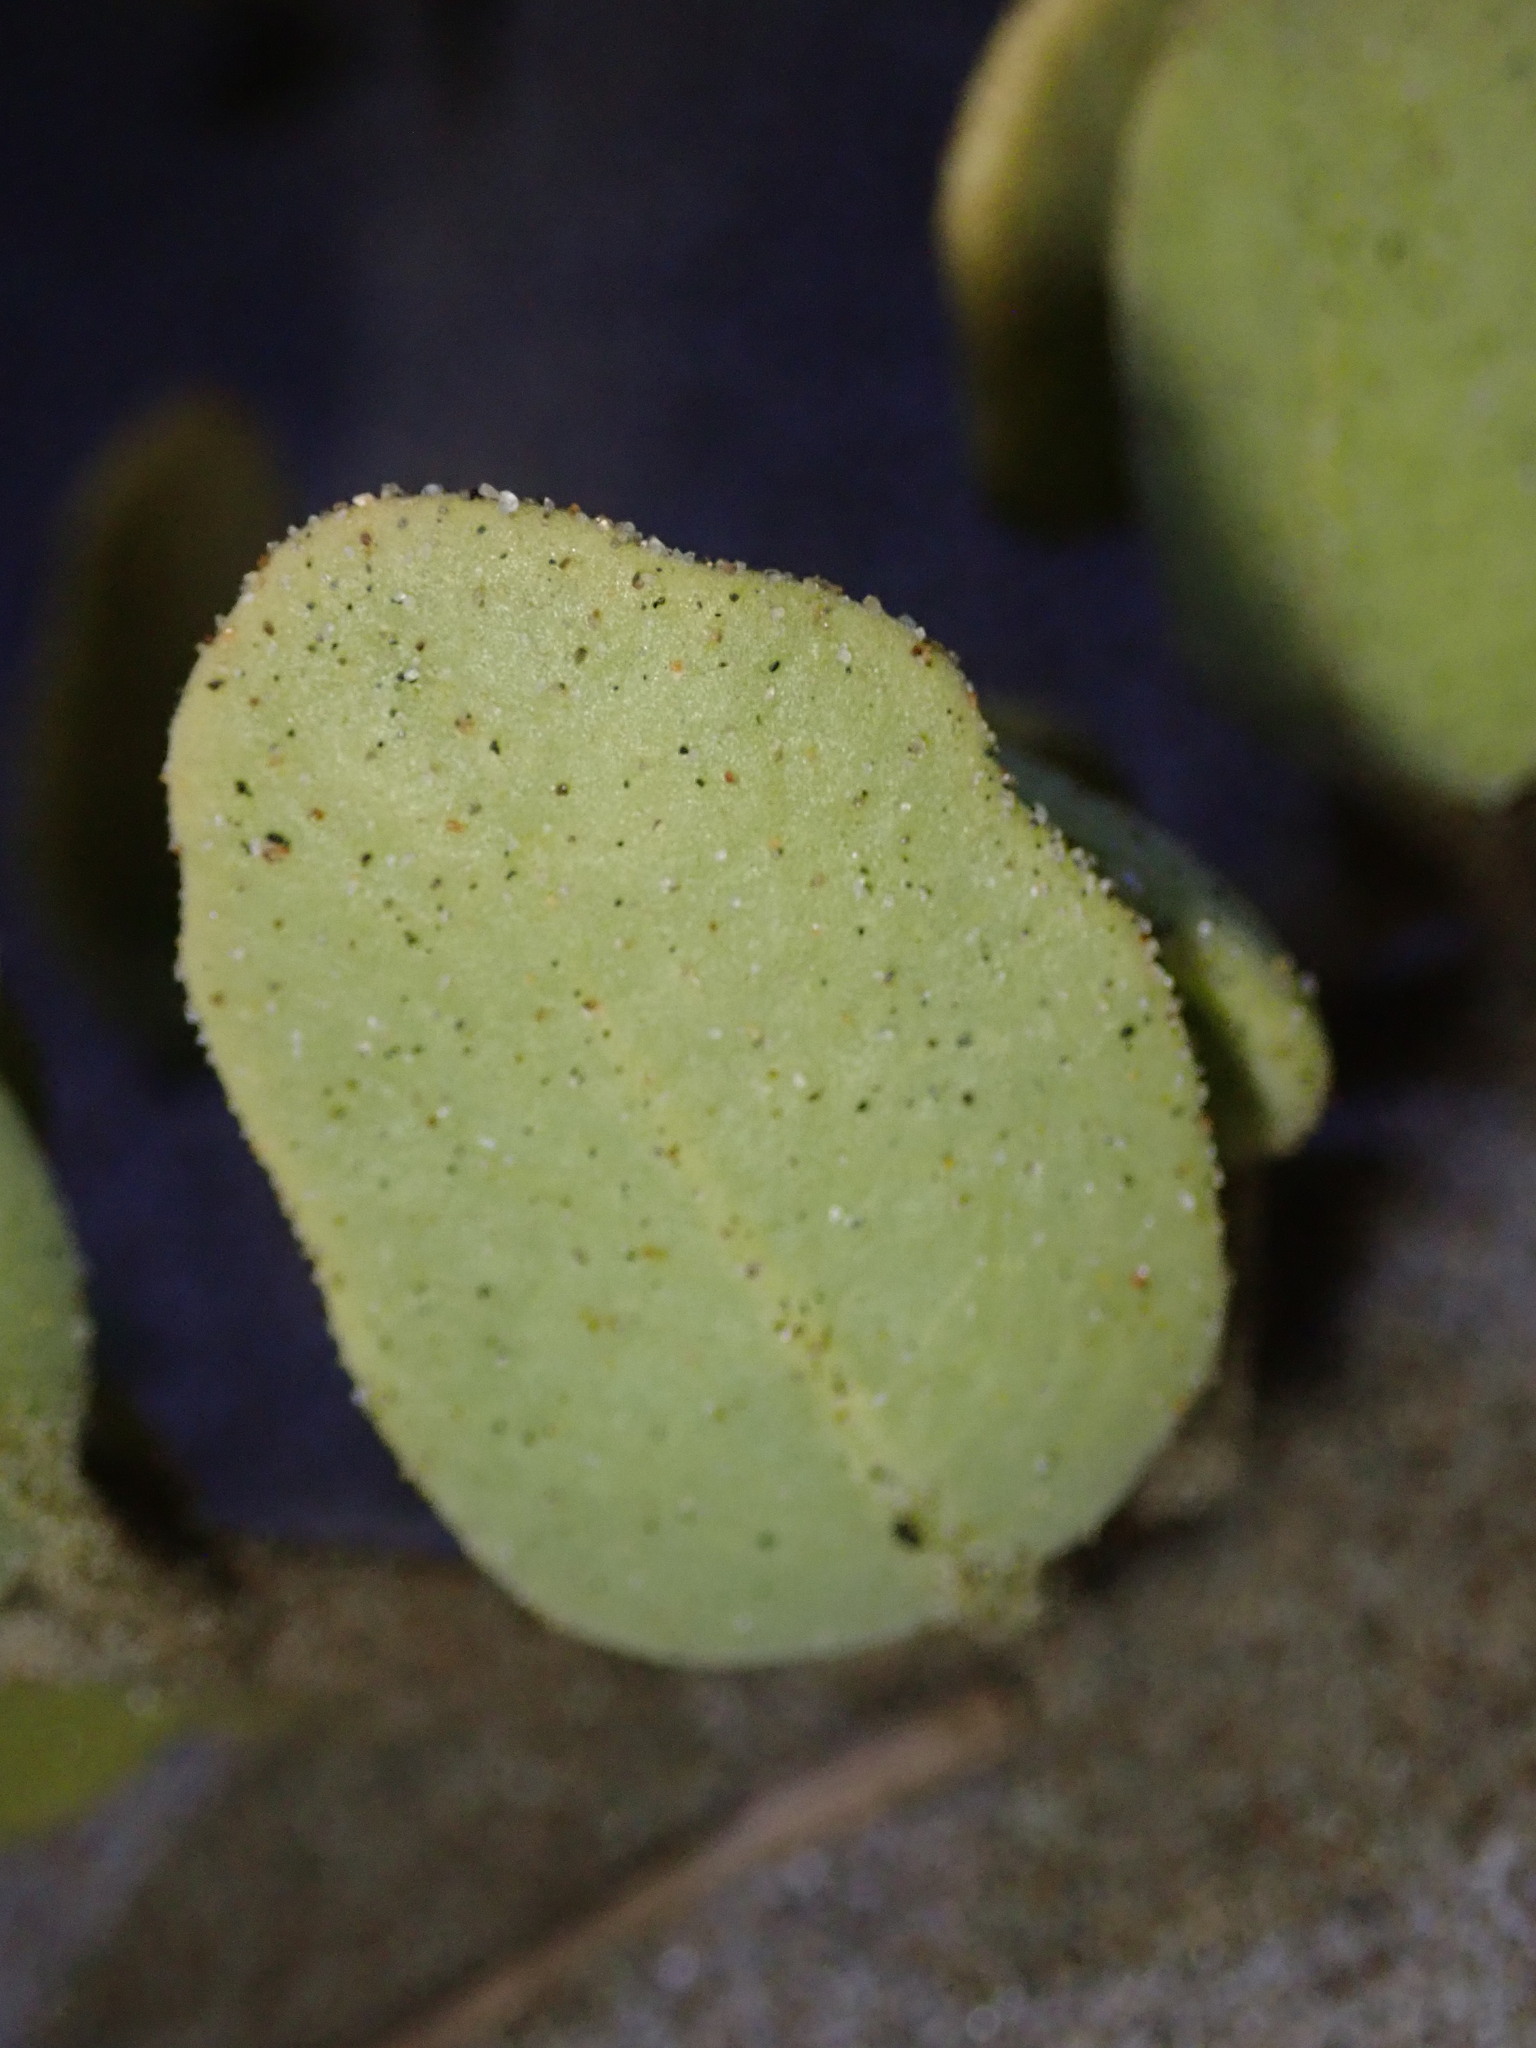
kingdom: Plantae
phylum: Tracheophyta
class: Magnoliopsida
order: Caryophyllales
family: Nyctaginaceae
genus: Abronia
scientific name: Abronia maritima
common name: Red sand-verbena
